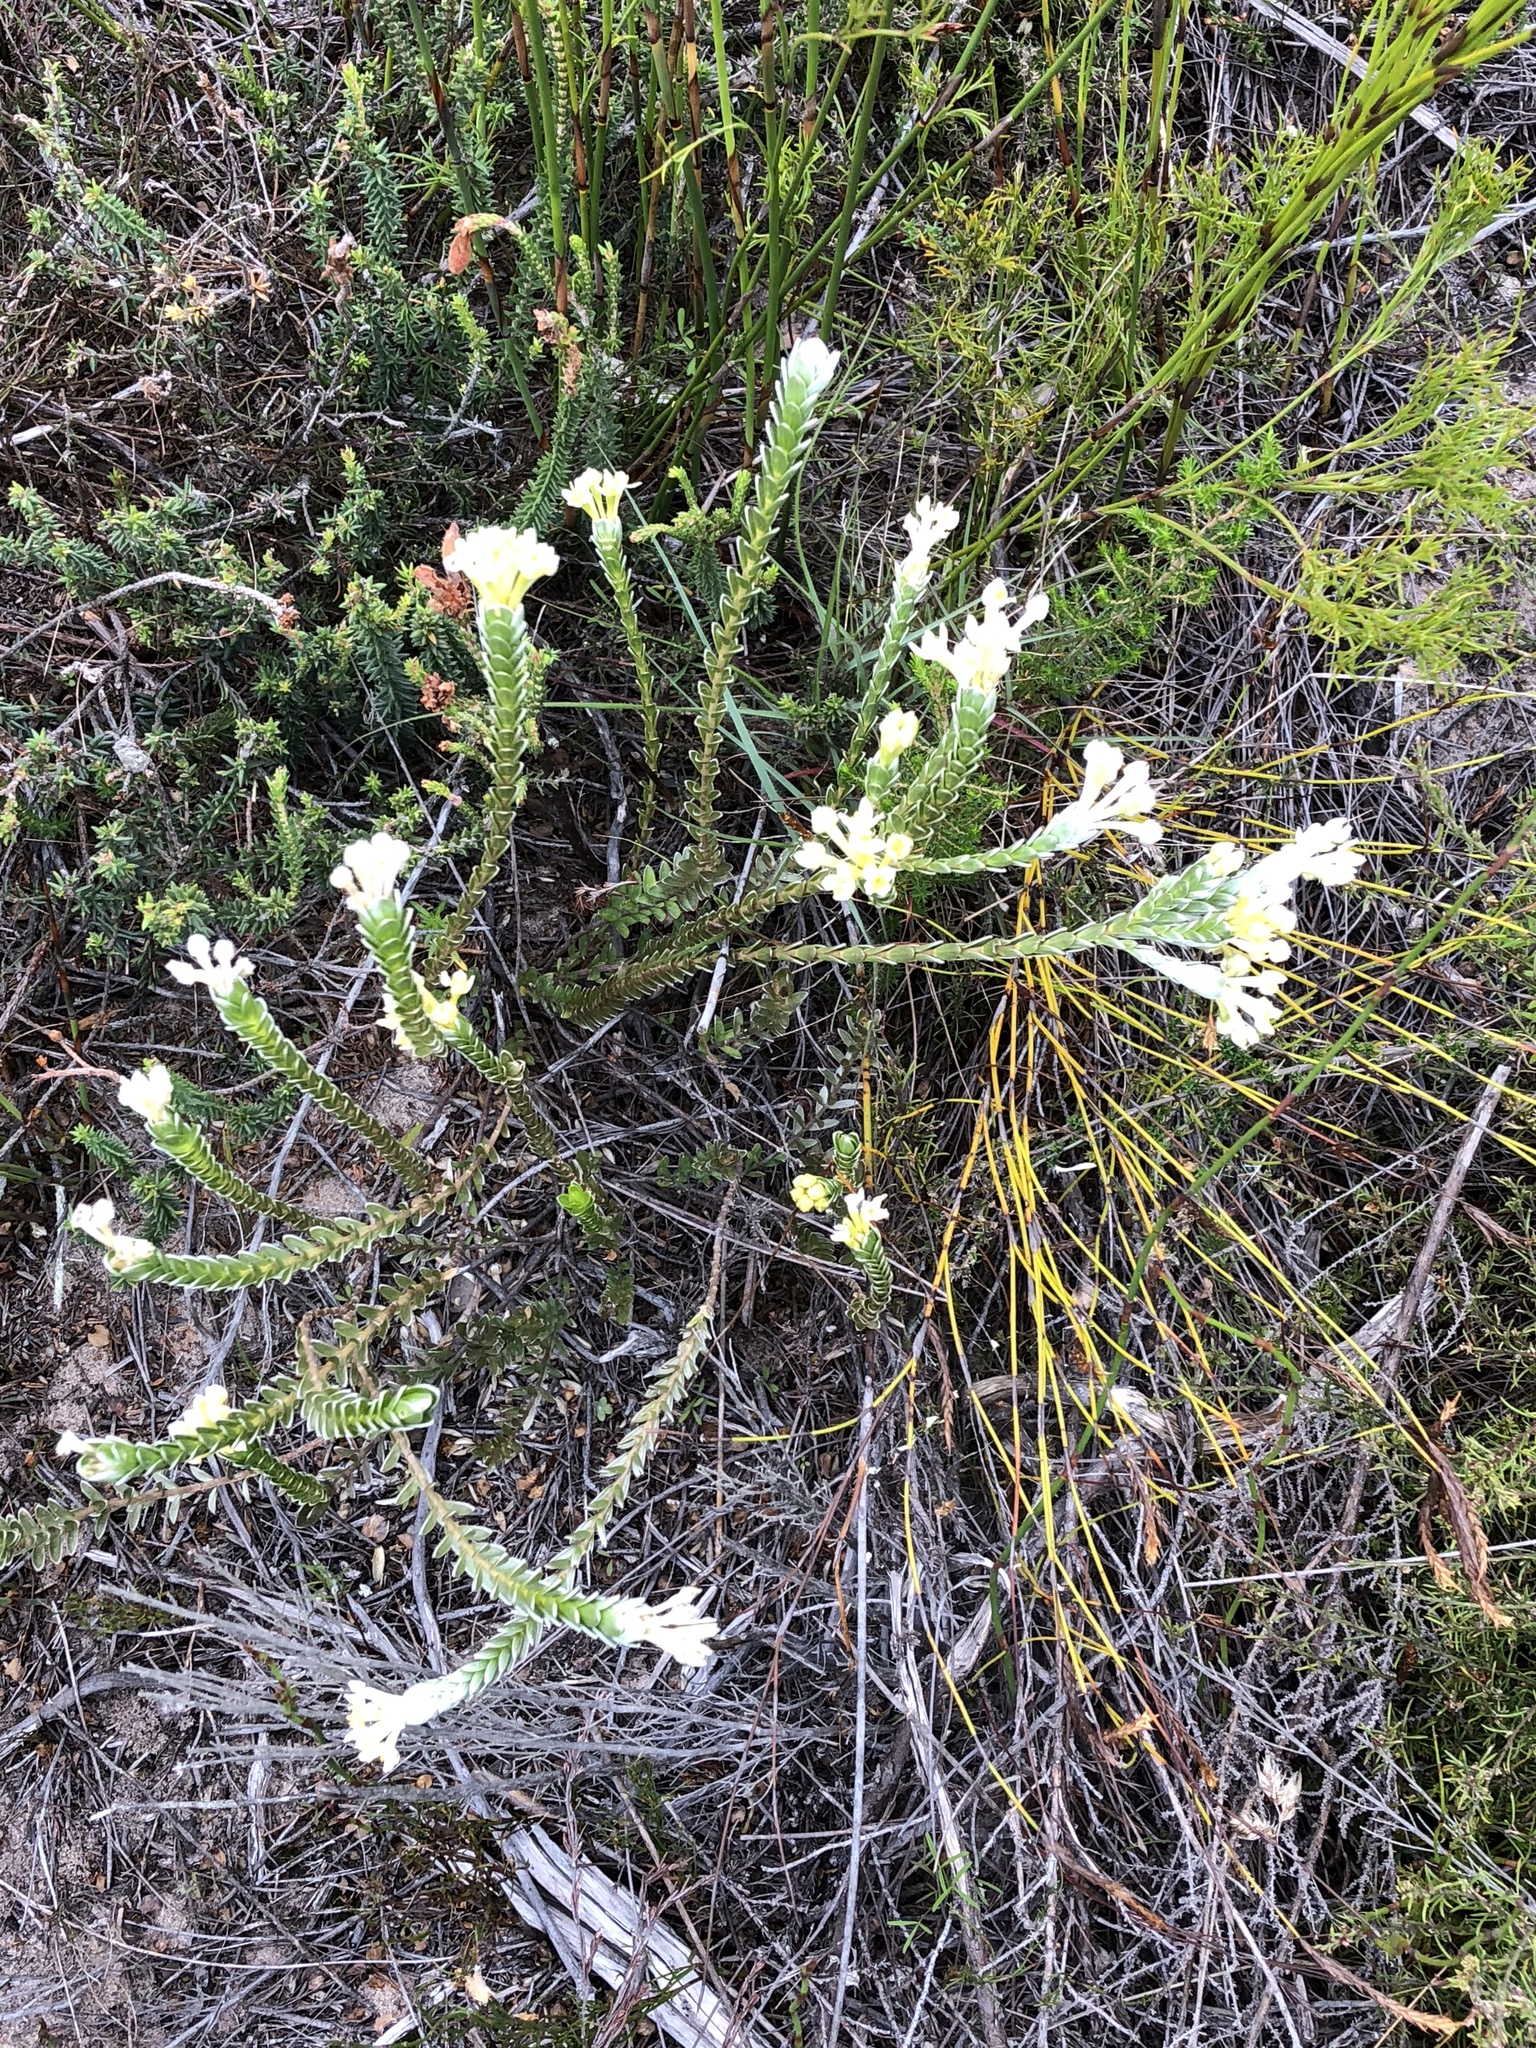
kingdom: Plantae
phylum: Tracheophyta
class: Magnoliopsida
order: Malvales
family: Thymelaeaceae
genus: Gnidia
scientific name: Gnidia chrysophylla
